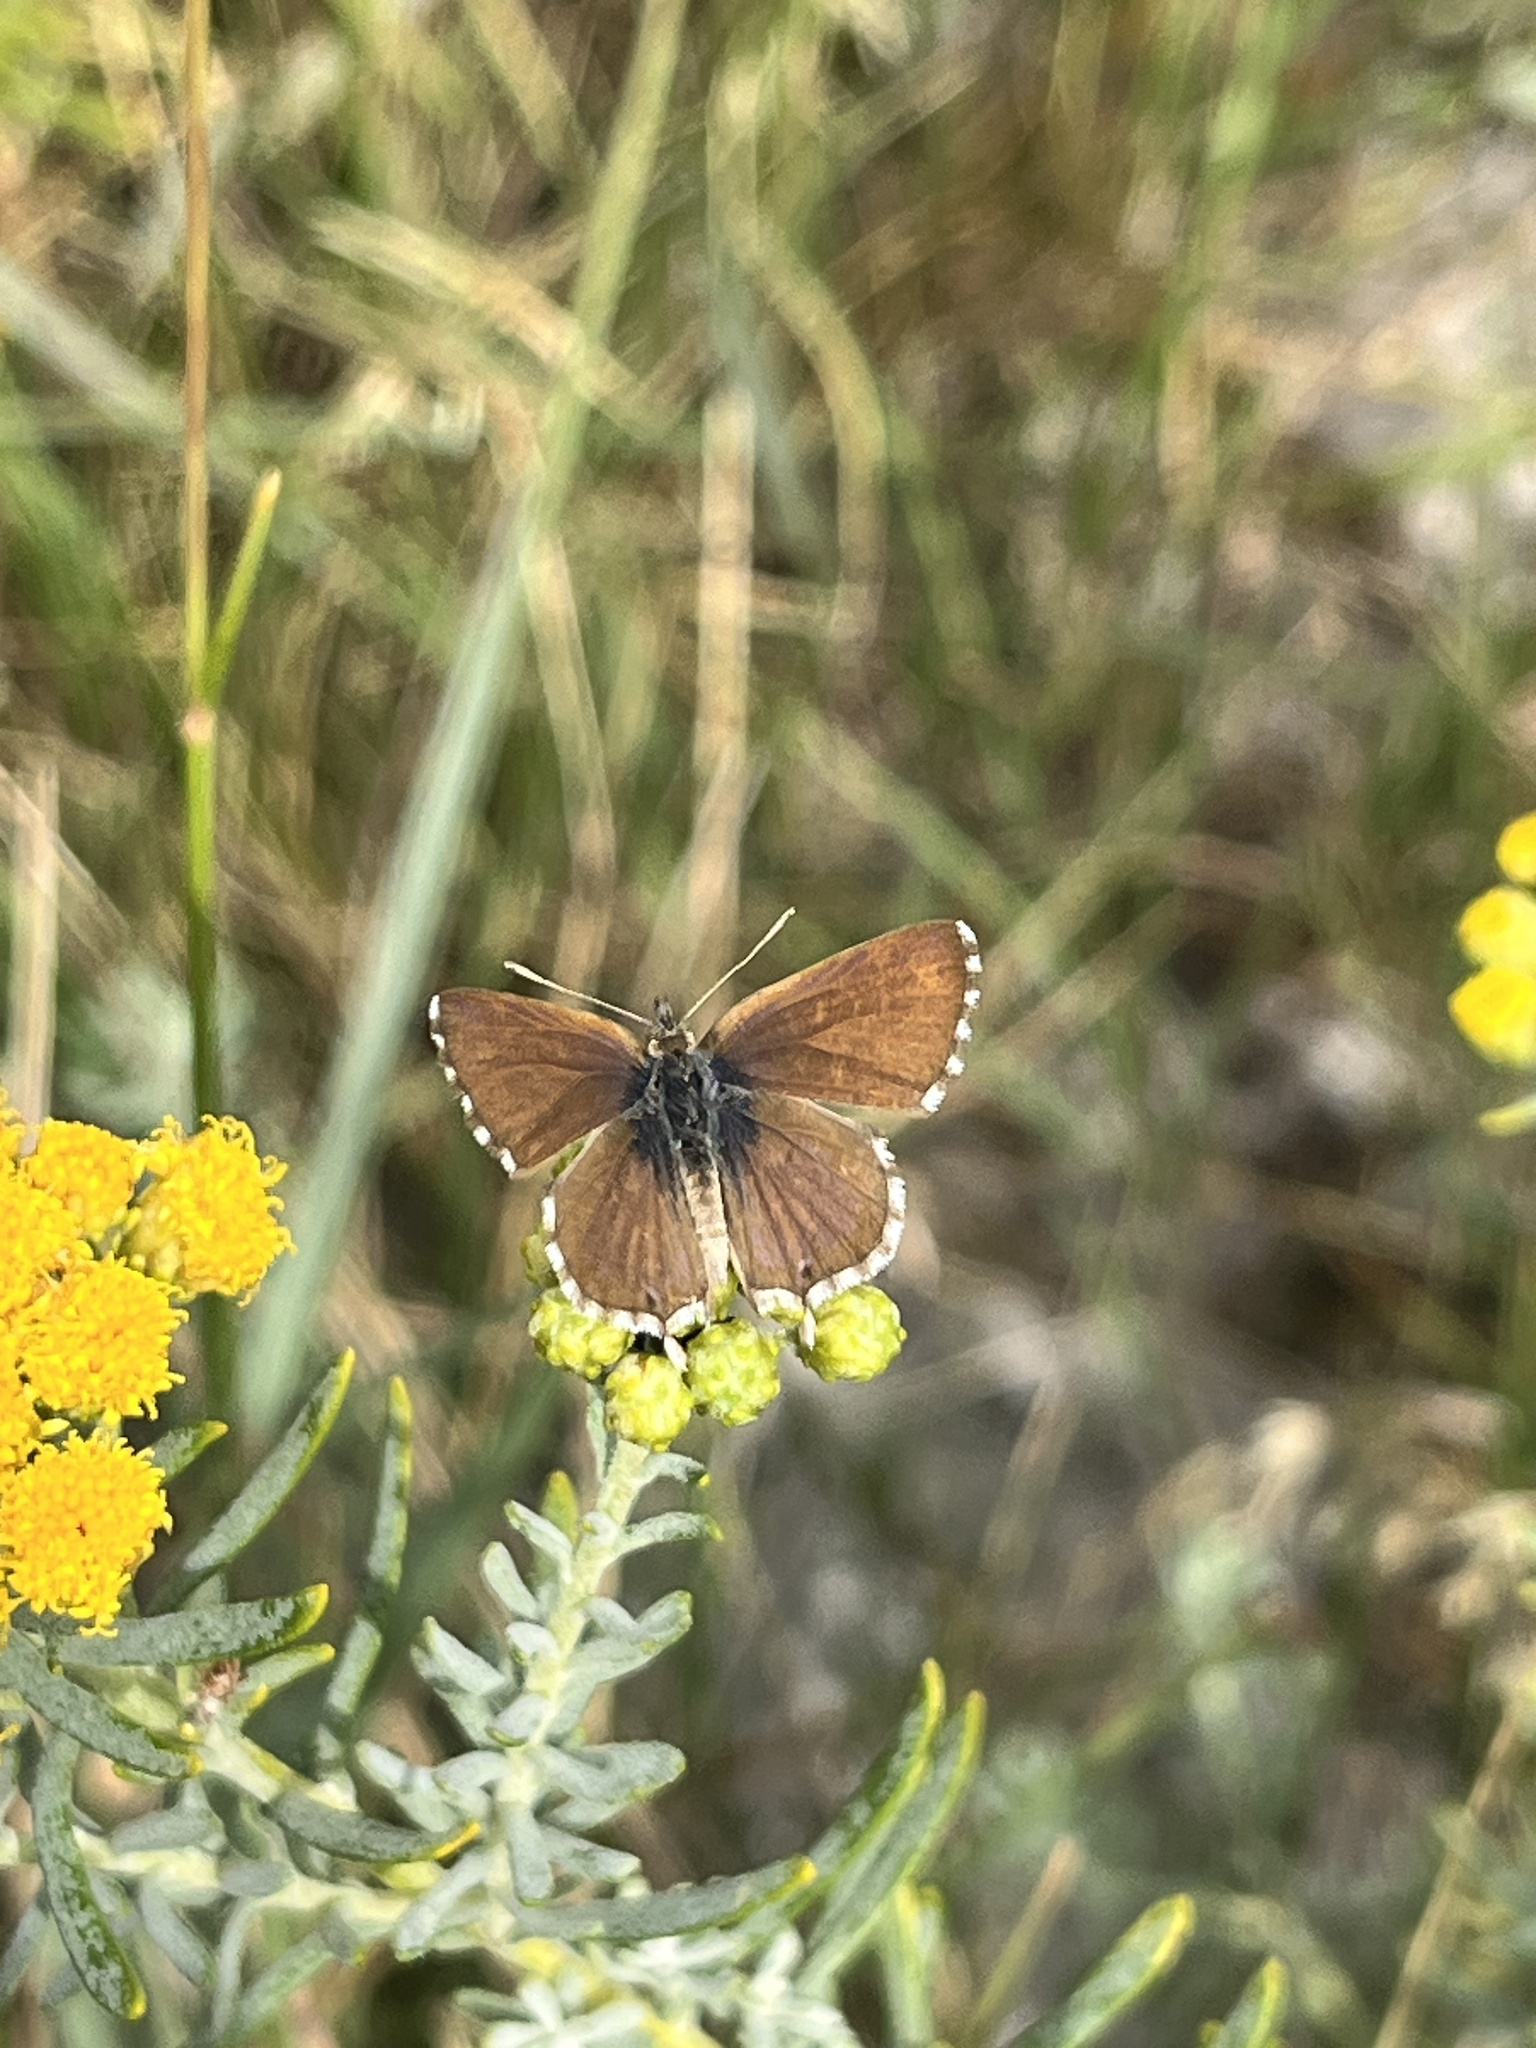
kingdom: Animalia
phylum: Arthropoda
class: Insecta
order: Lepidoptera
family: Lycaenidae
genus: Cacyreus
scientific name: Cacyreus fracta
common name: Water bronze
